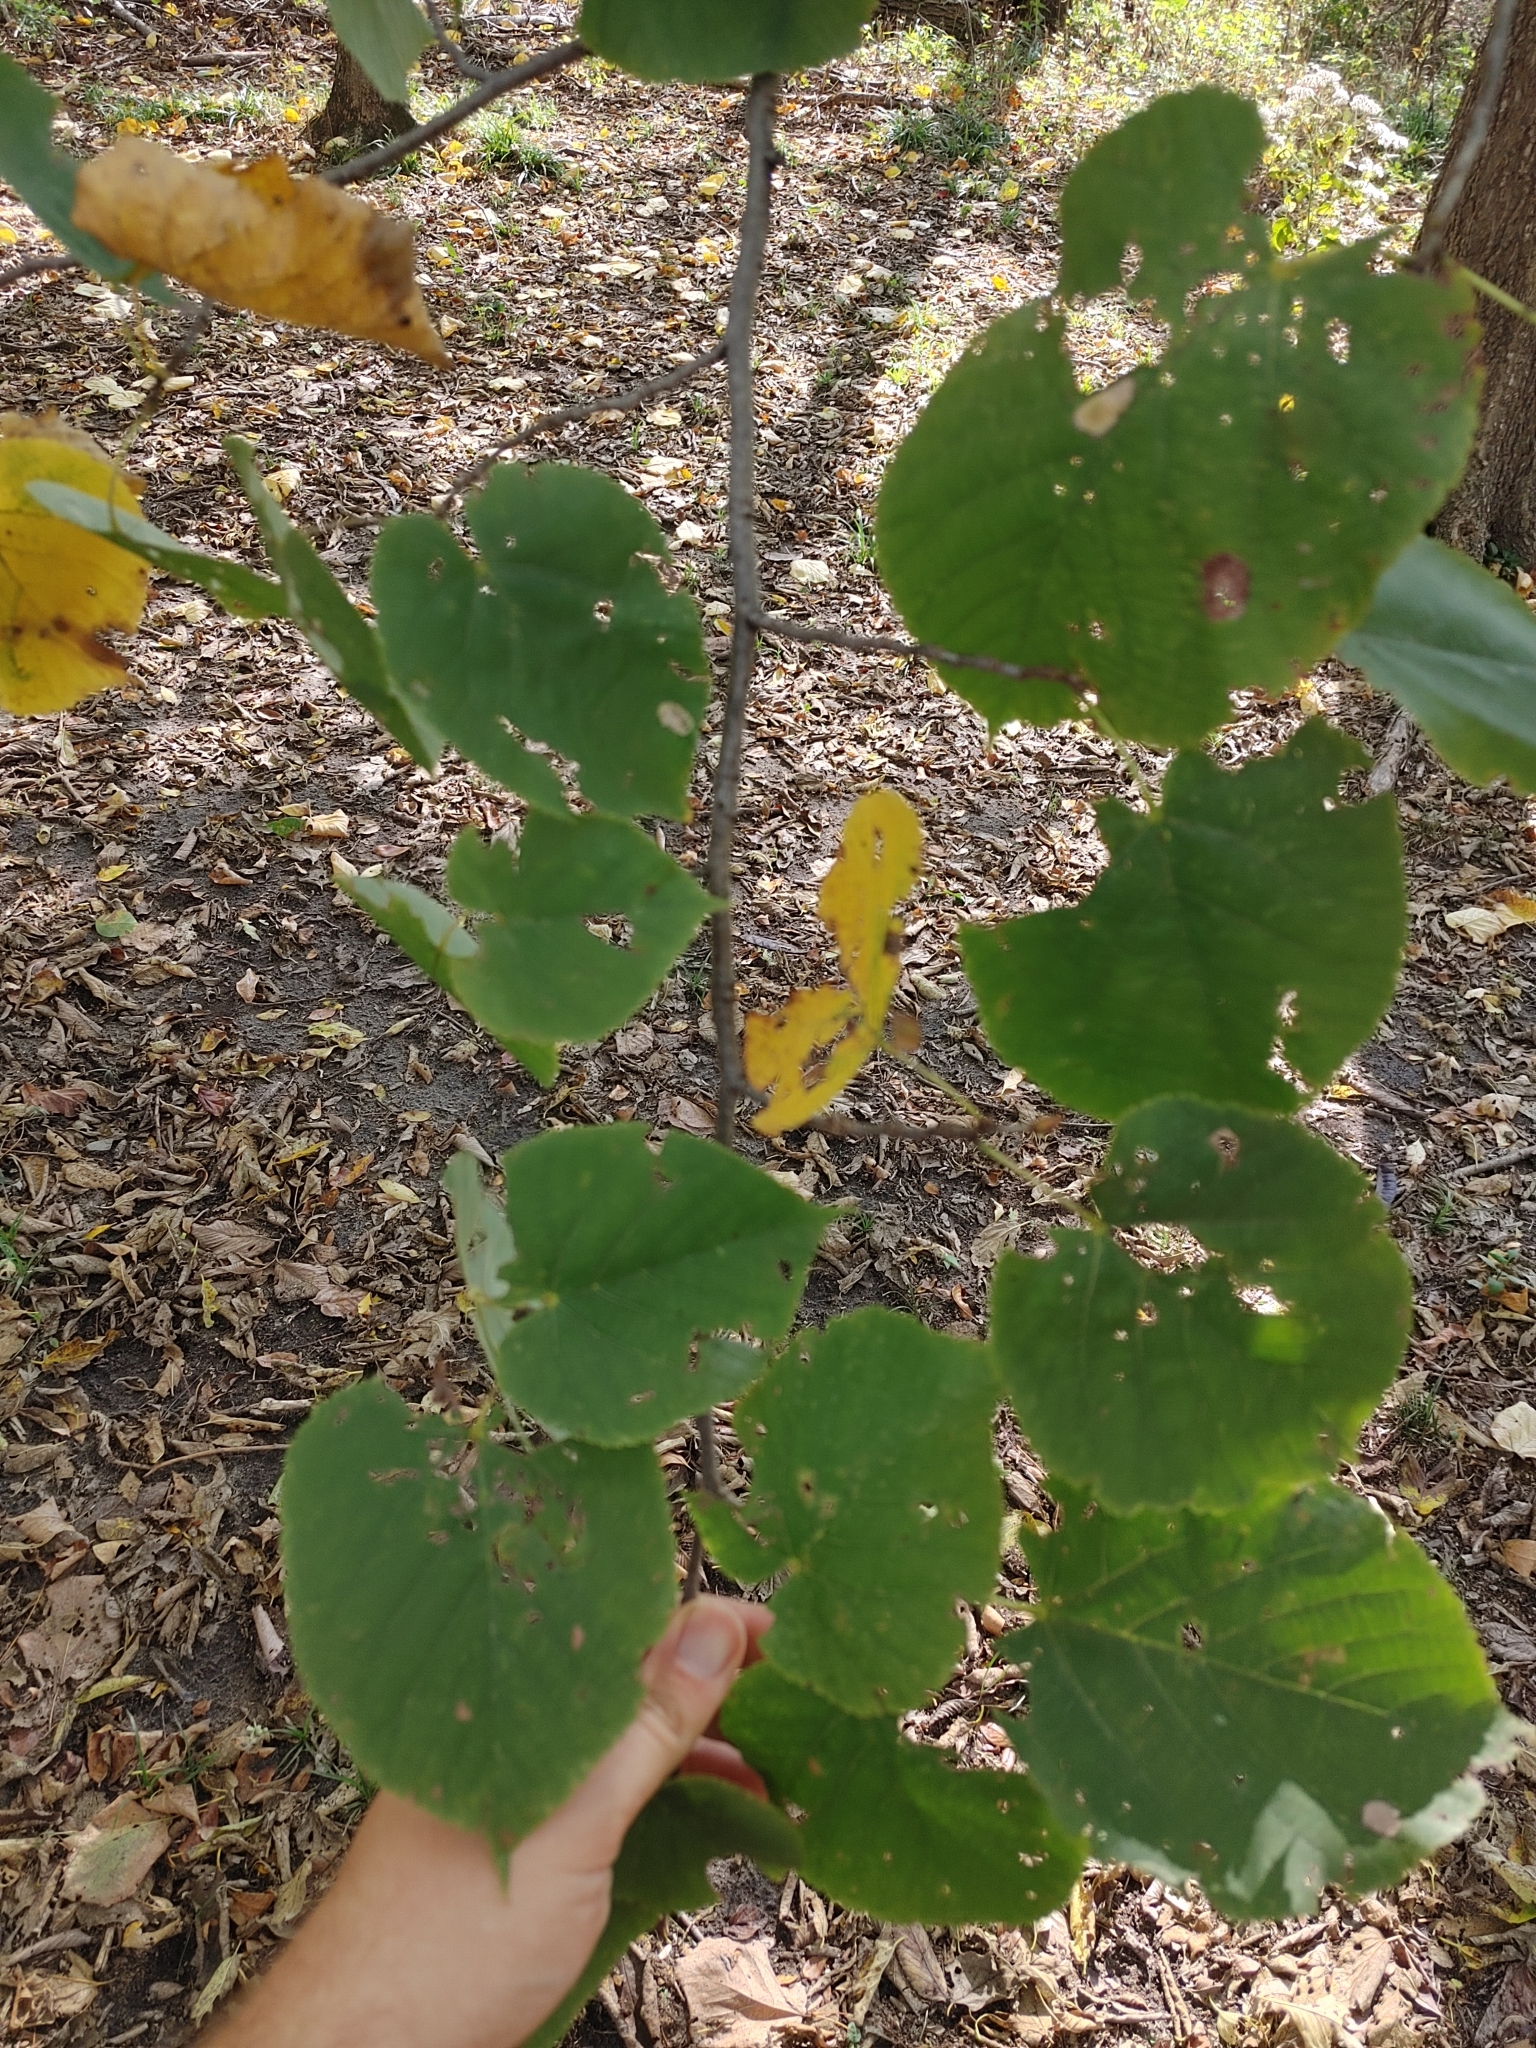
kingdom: Plantae
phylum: Tracheophyta
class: Magnoliopsida
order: Malvales
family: Malvaceae
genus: Tilia
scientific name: Tilia americana
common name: Basswood
